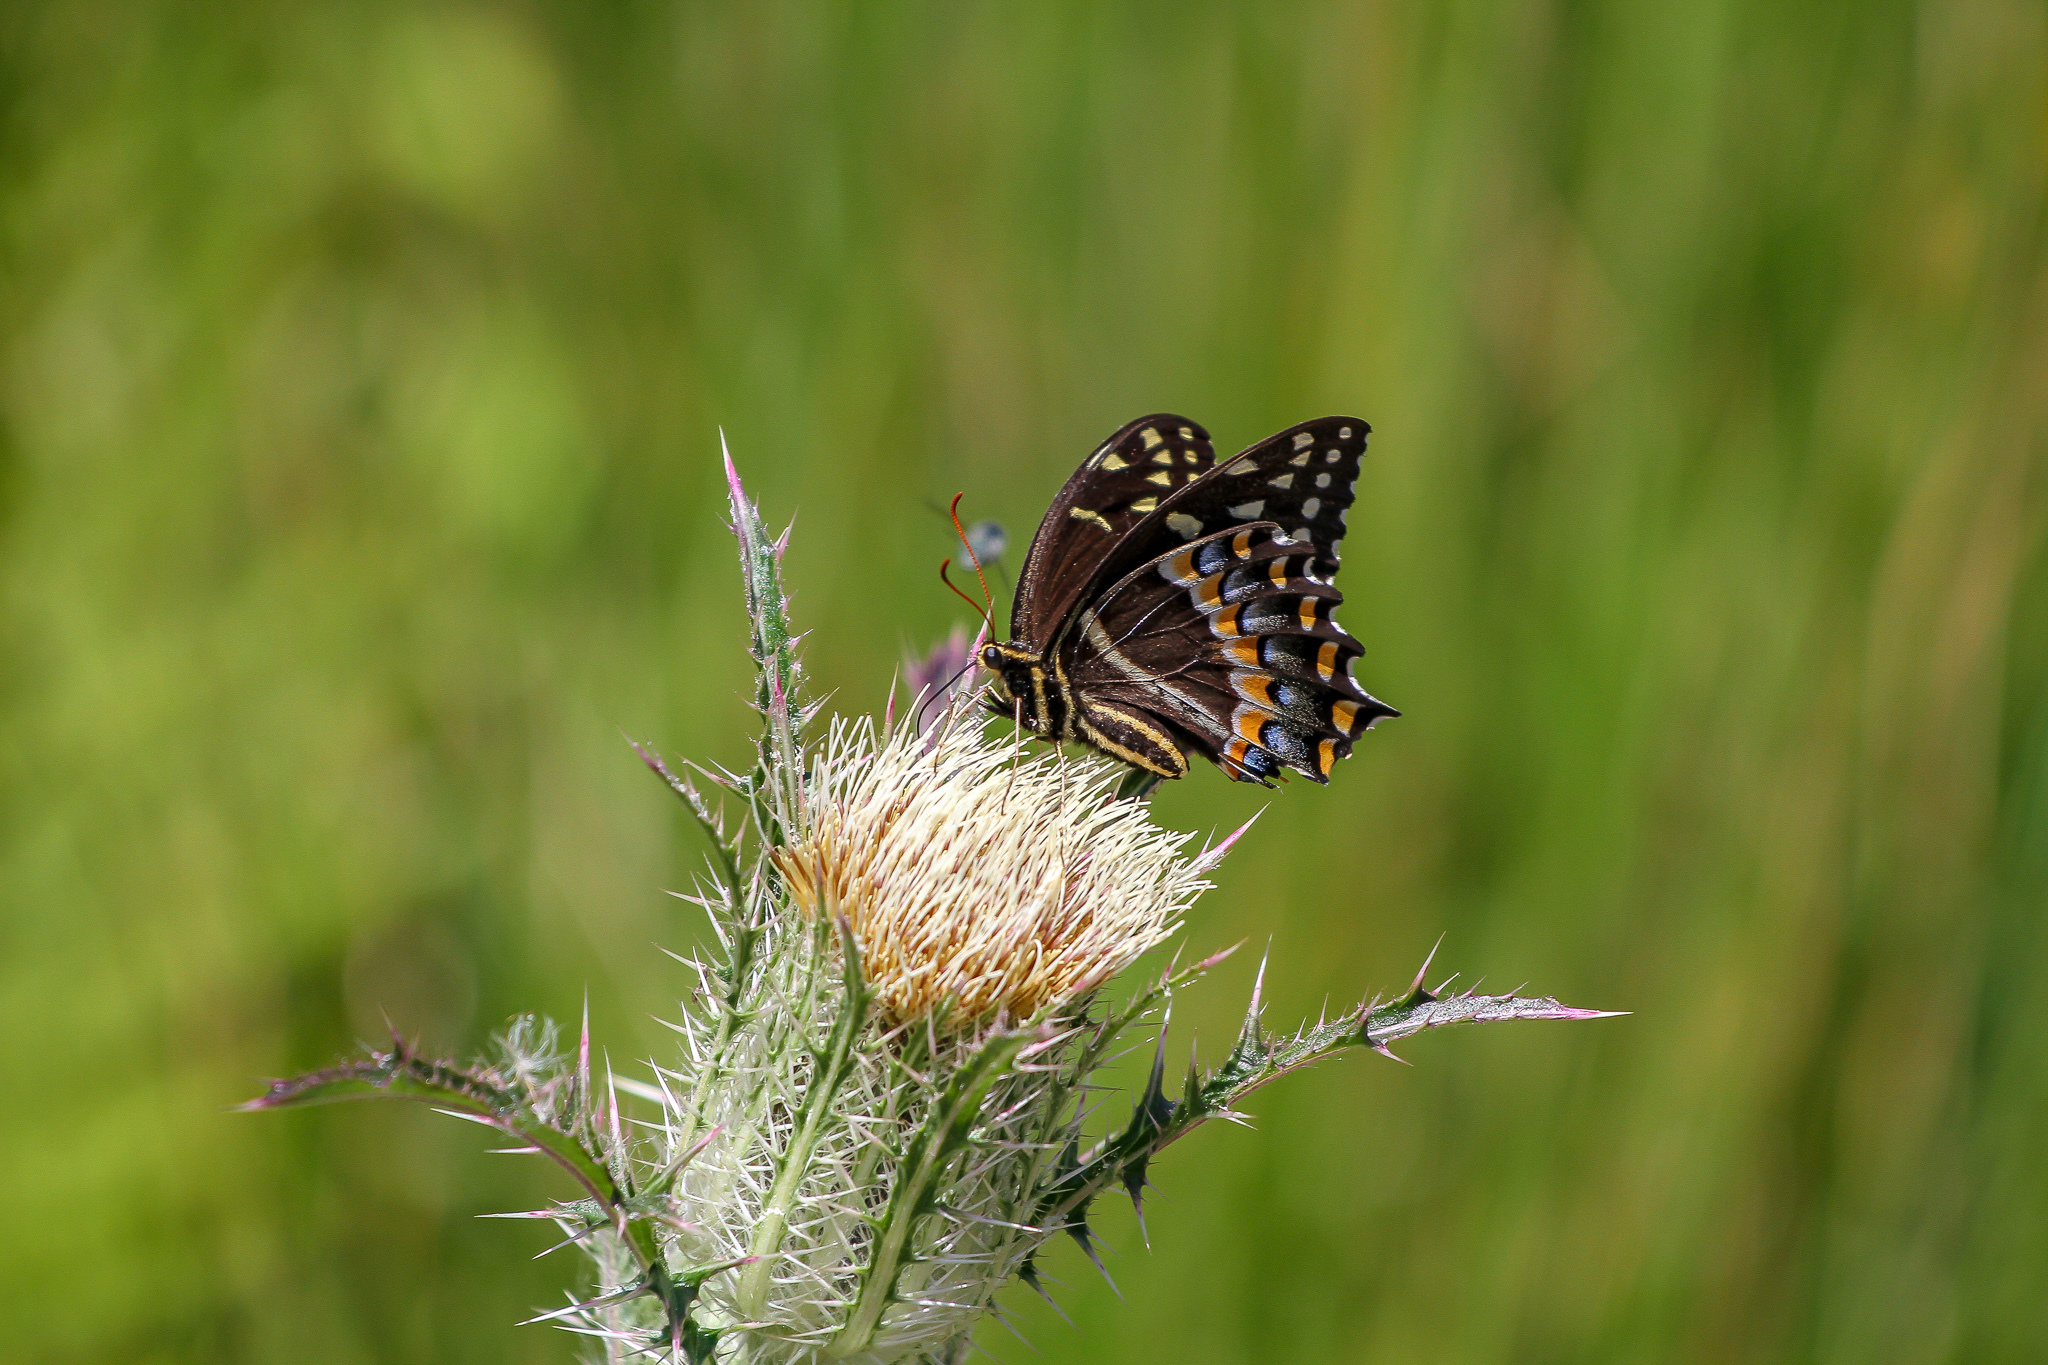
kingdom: Animalia
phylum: Arthropoda
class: Insecta
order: Lepidoptera
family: Papilionidae
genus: Papilio
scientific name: Papilio palamedes
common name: Palamedes swallowtail
